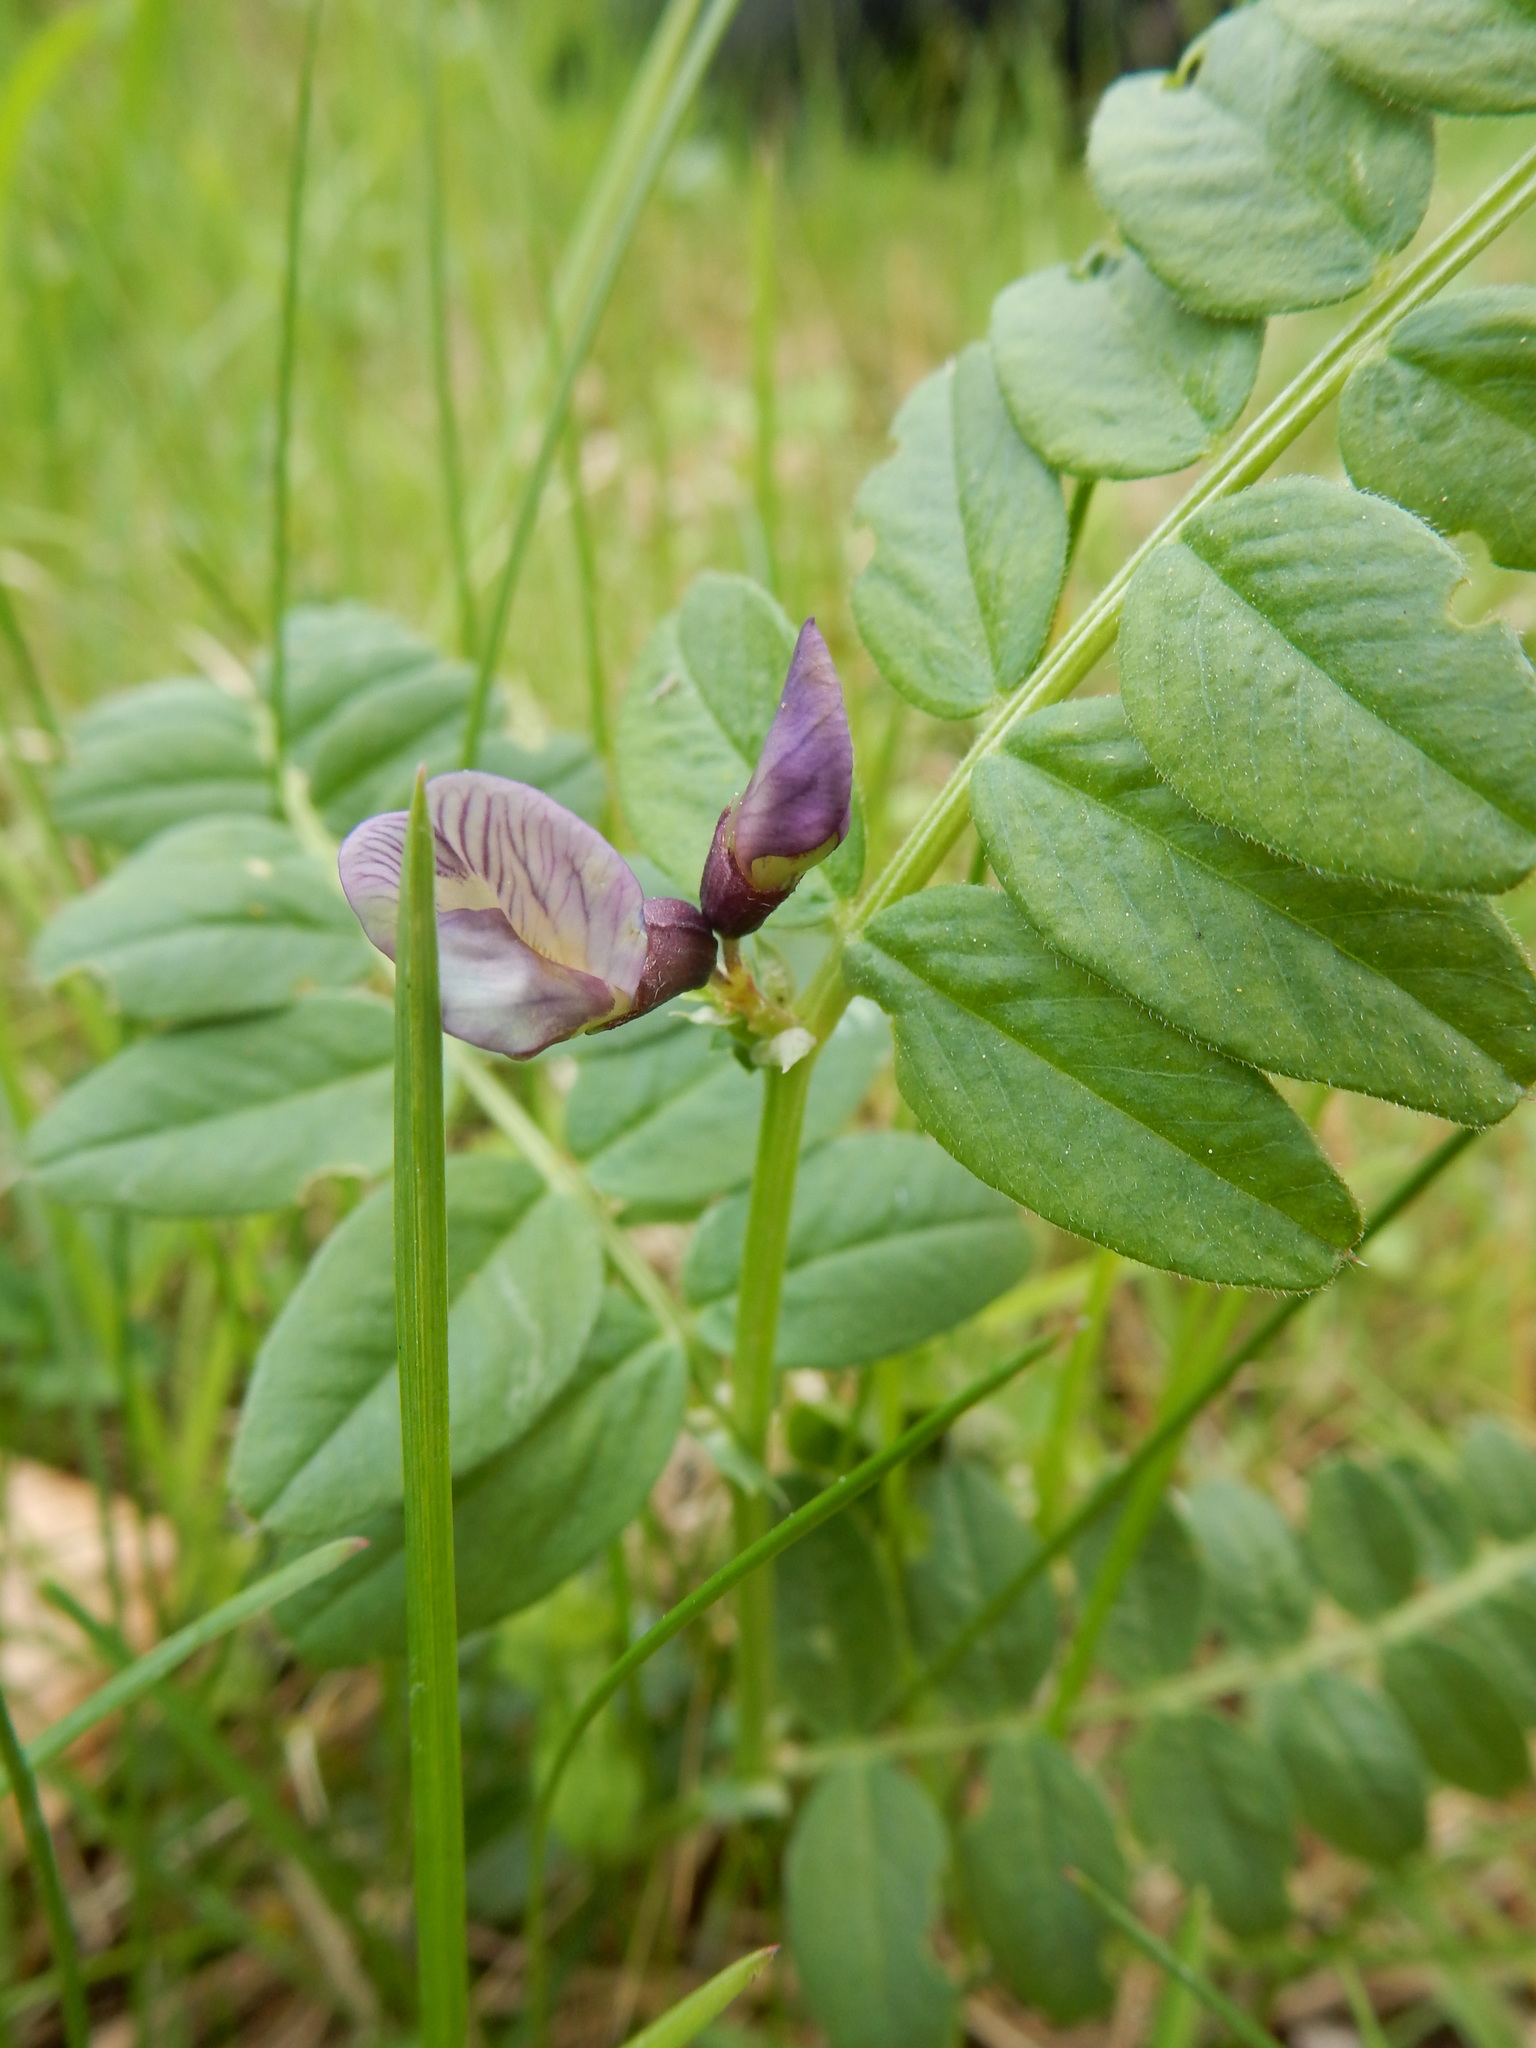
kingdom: Plantae
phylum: Tracheophyta
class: Magnoliopsida
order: Fabales
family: Fabaceae
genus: Vicia
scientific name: Vicia sepium
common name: Bush vetch
